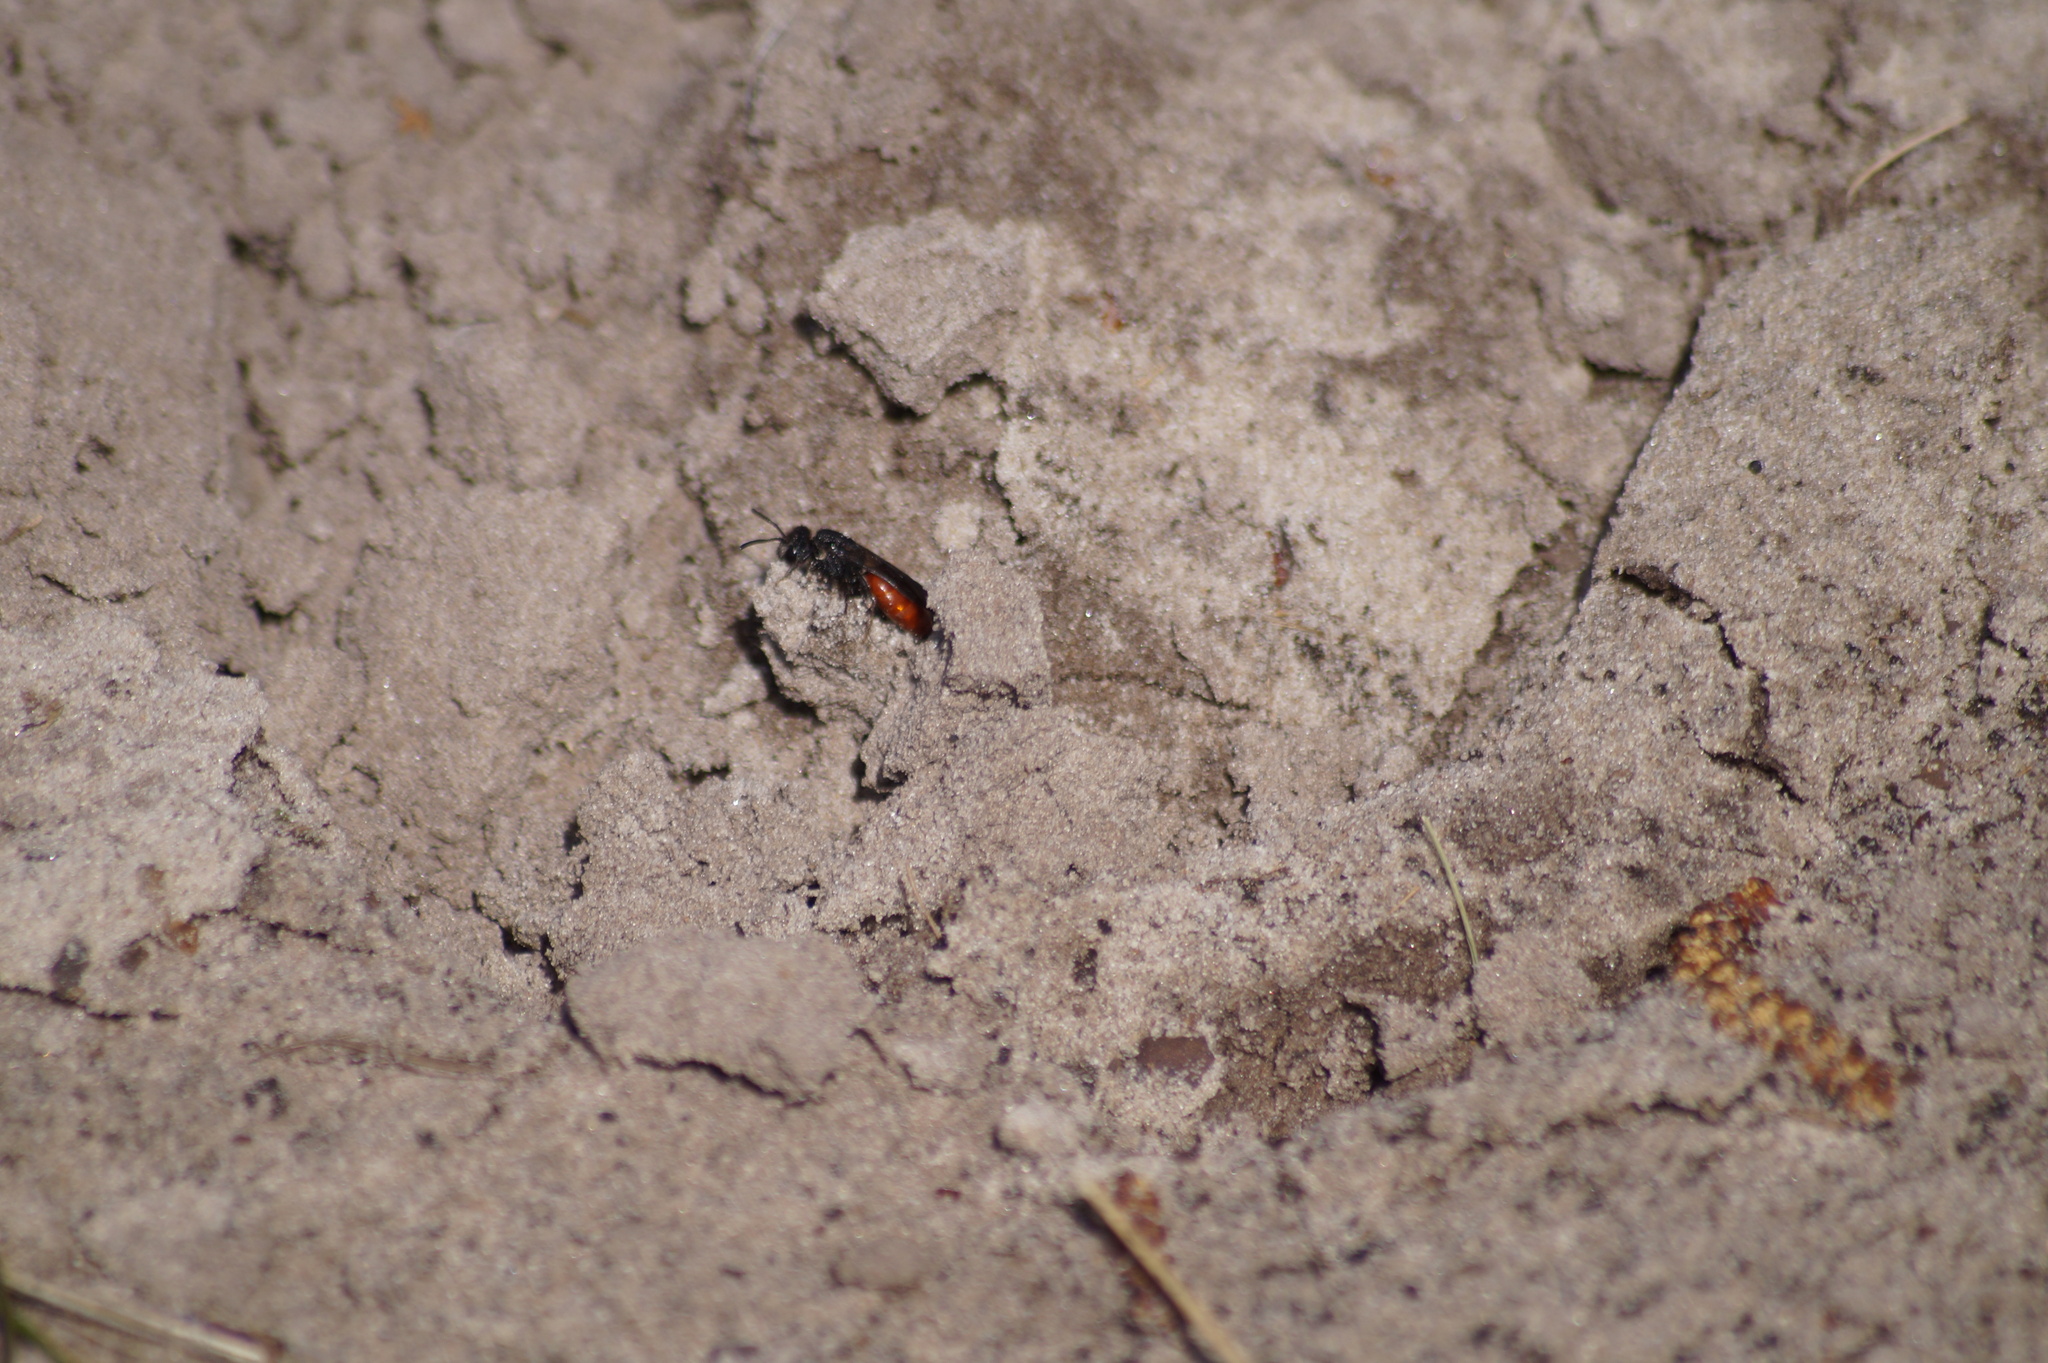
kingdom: Animalia
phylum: Arthropoda
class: Insecta
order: Hymenoptera
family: Halictidae
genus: Sphecodes
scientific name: Sphecodes albilabris
